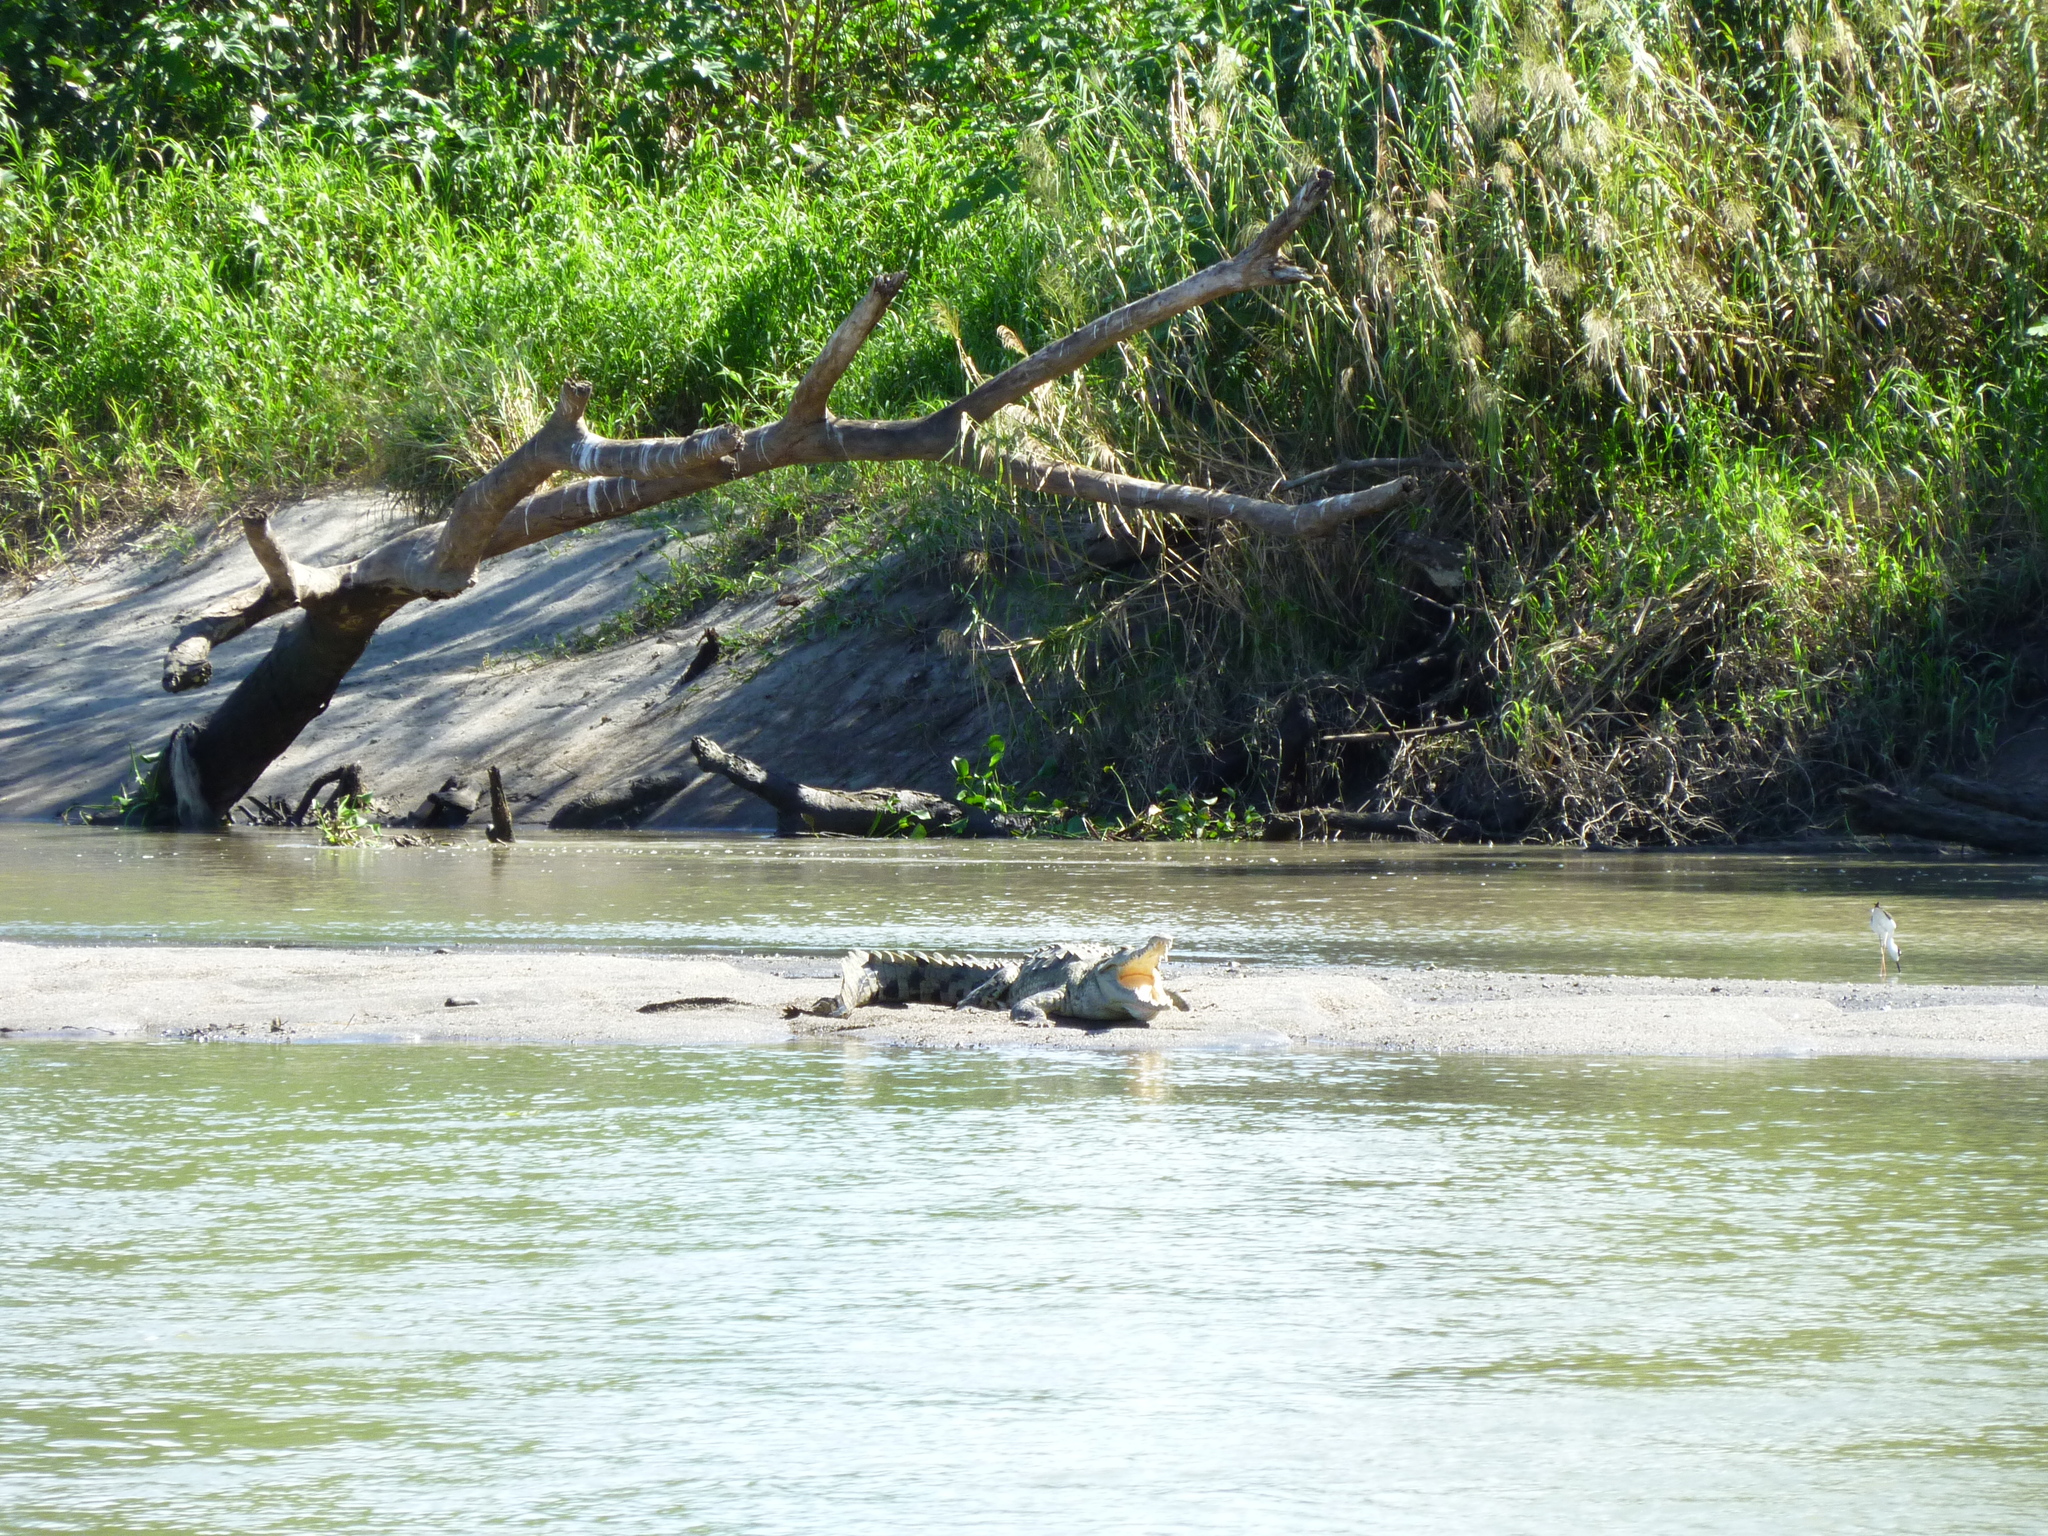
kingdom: Animalia
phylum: Chordata
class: Crocodylia
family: Crocodylidae
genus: Crocodylus
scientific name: Crocodylus acutus
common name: American crocodile
